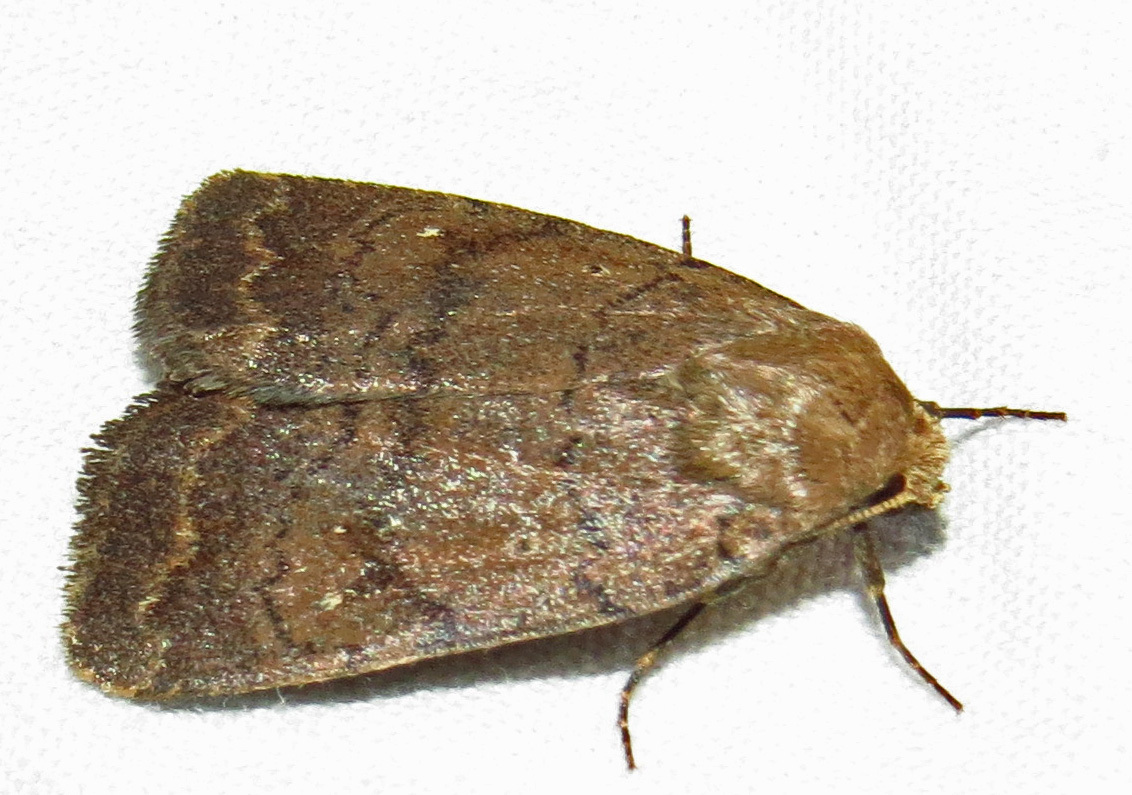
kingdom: Animalia
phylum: Arthropoda
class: Insecta
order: Lepidoptera
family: Noctuidae
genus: Athetis
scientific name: Athetis tarda
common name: Slowpoke moth
